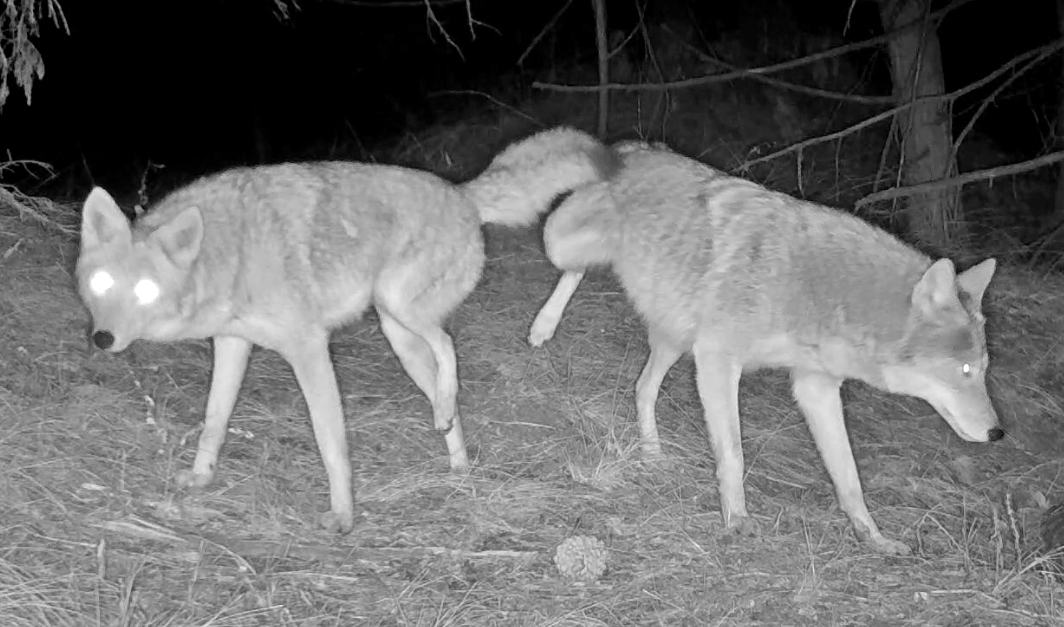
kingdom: Animalia
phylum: Chordata
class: Mammalia
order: Carnivora
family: Canidae
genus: Canis
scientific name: Canis latrans
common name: Coyote
